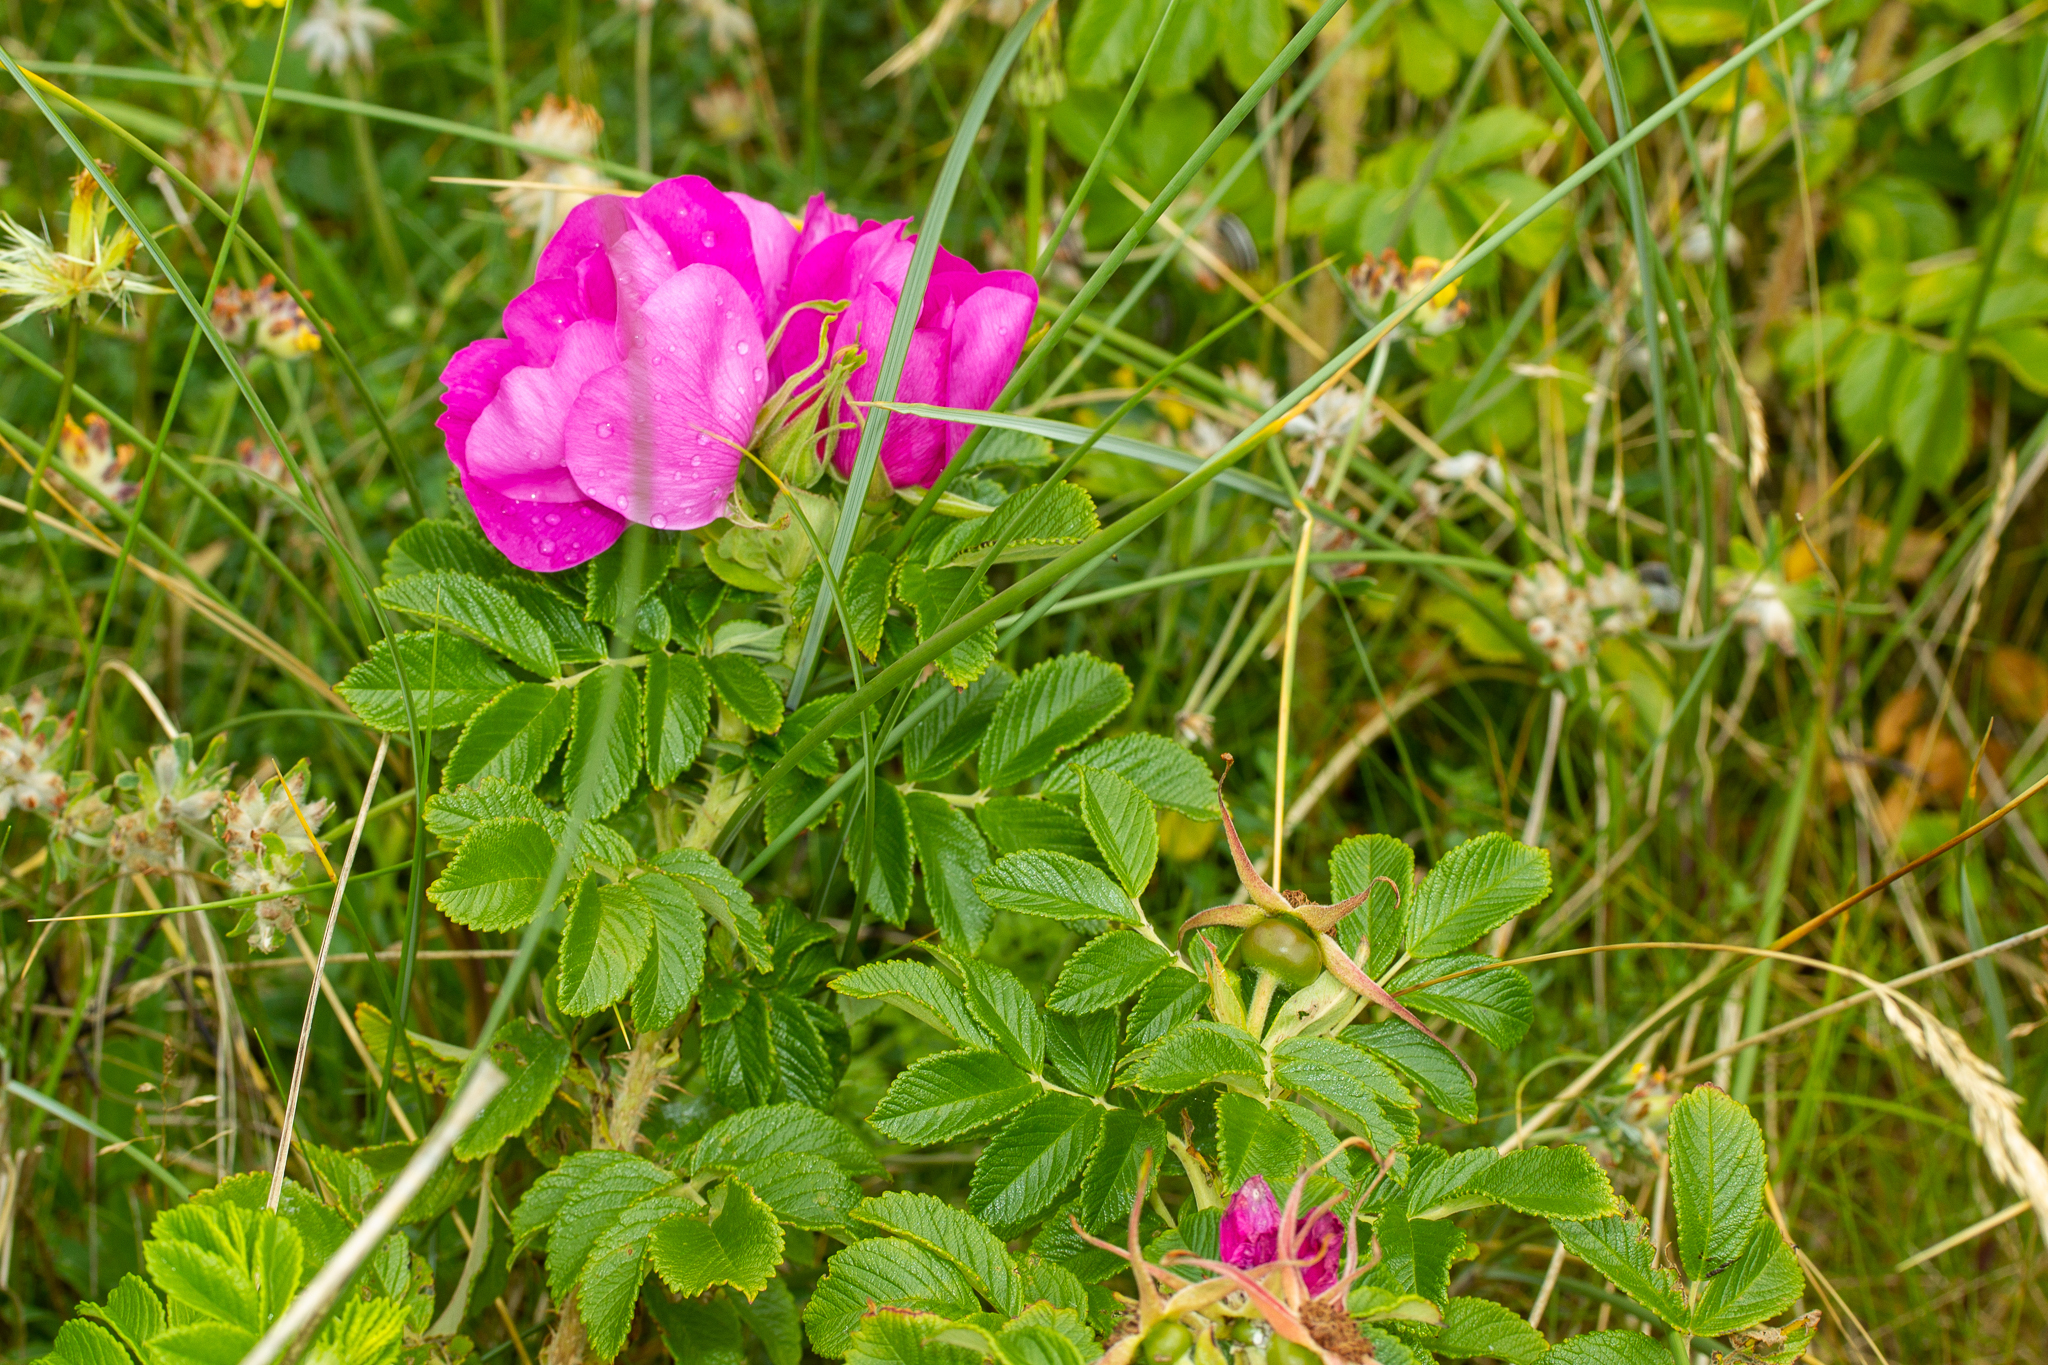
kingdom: Plantae
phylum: Tracheophyta
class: Magnoliopsida
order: Rosales
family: Rosaceae
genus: Rosa
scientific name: Rosa rugosa
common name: Japanese rose
